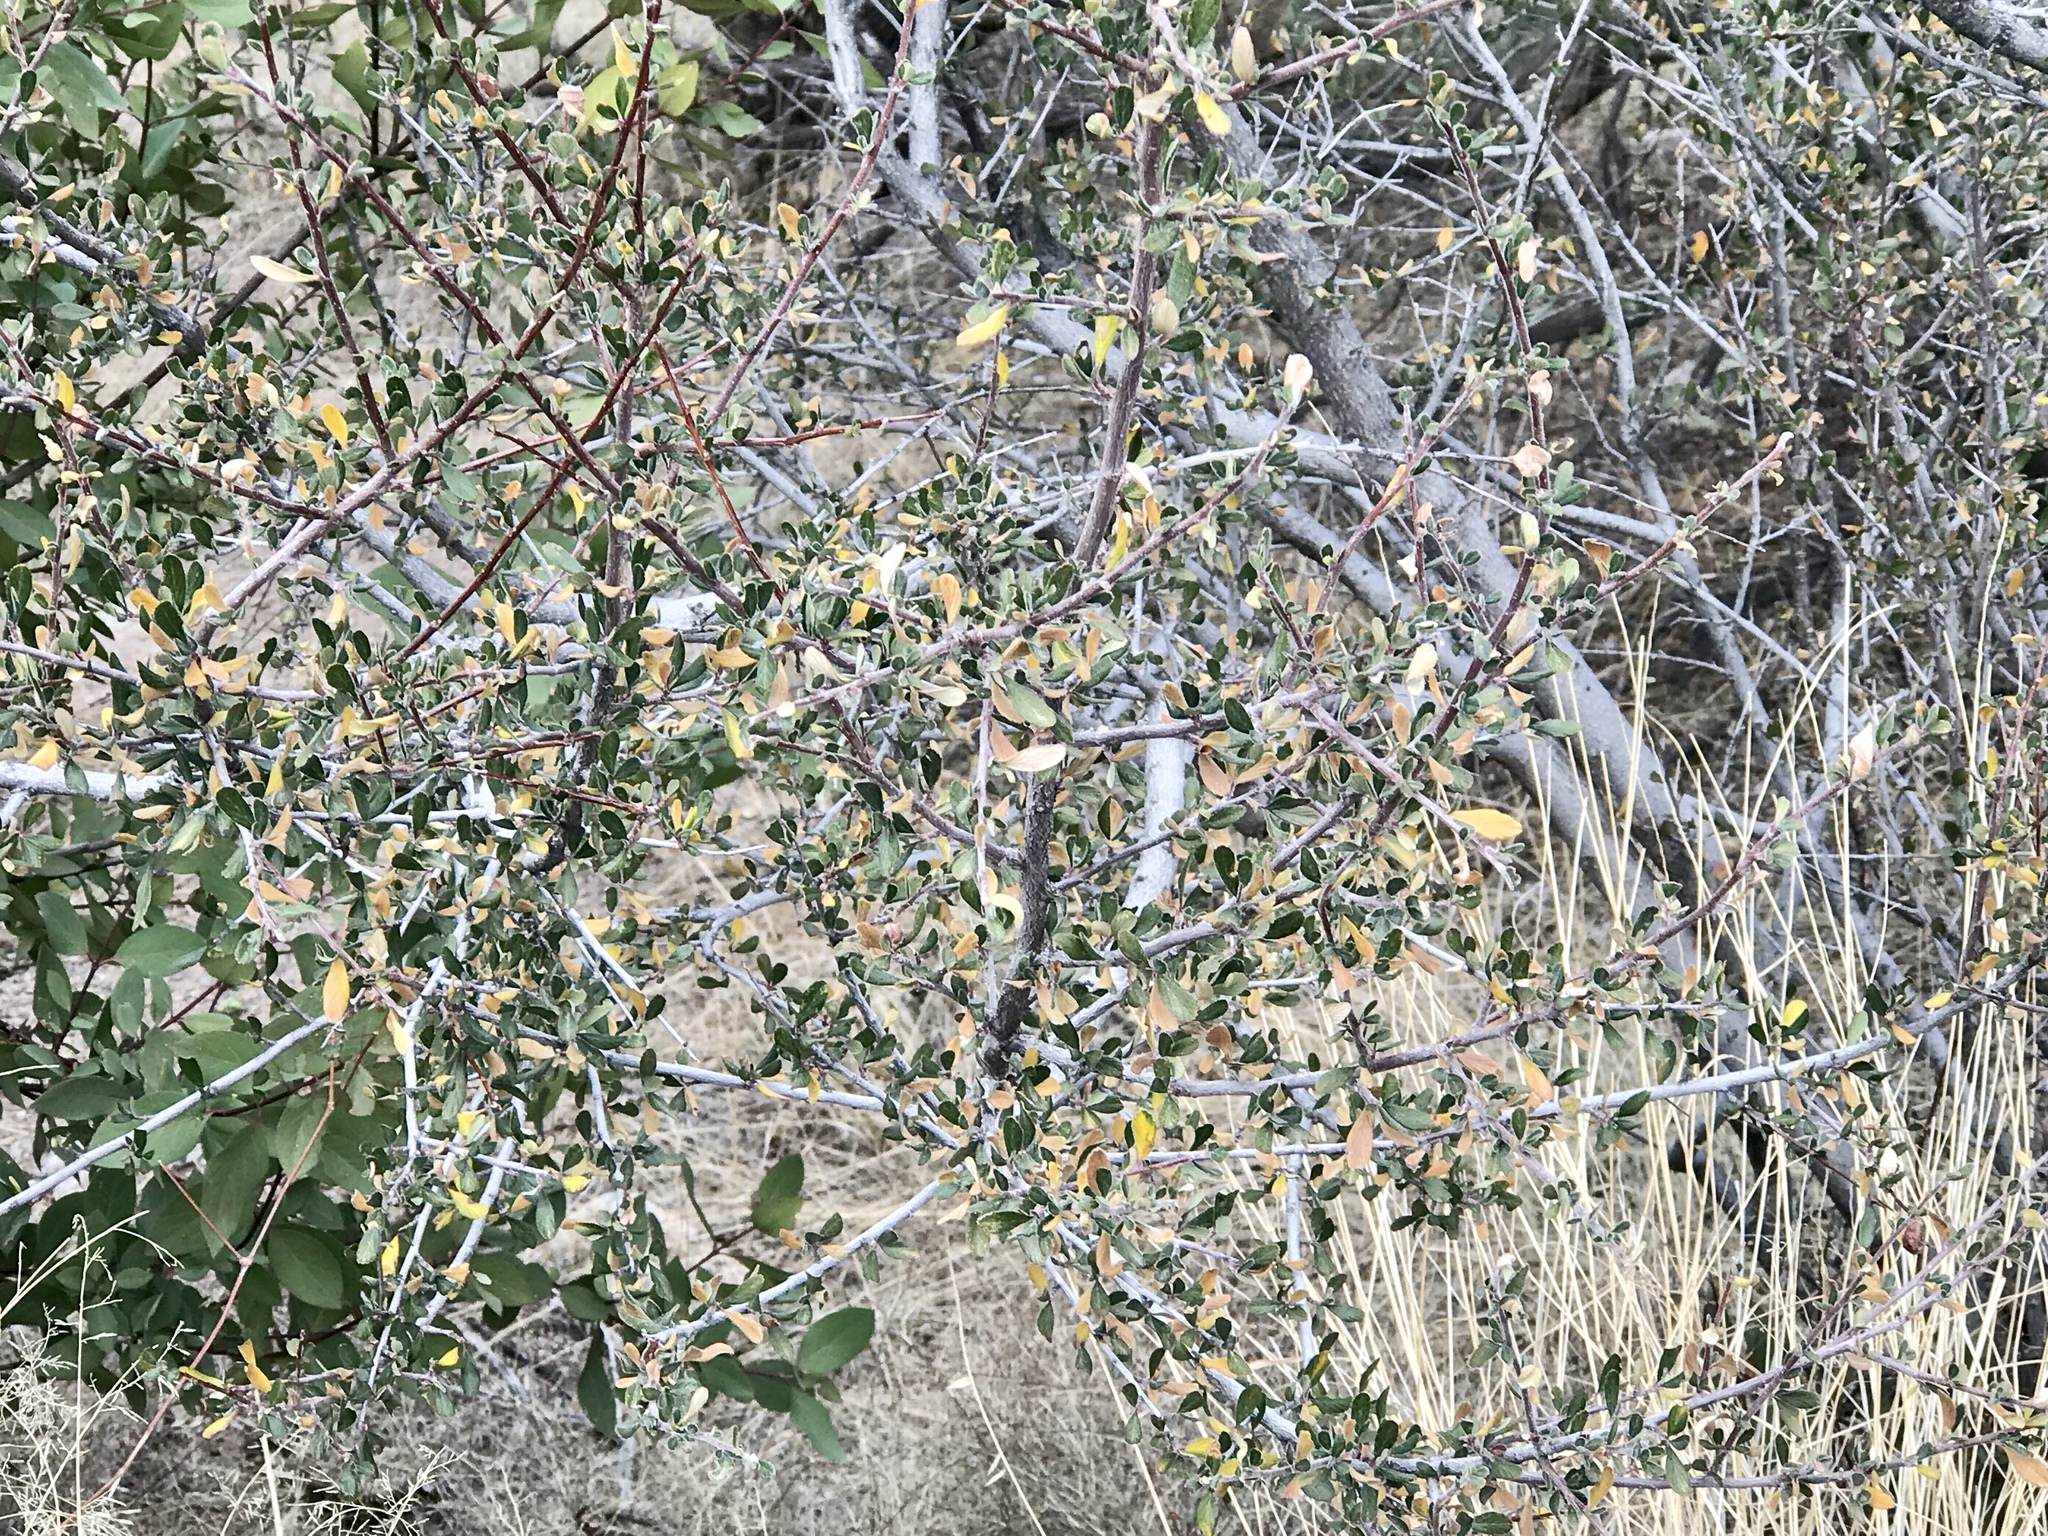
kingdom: Plantae
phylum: Tracheophyta
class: Magnoliopsida
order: Rosales
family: Rosaceae
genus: Cercocarpus
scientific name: Cercocarpus breviflorus
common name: Wright's mountain-mahogany
